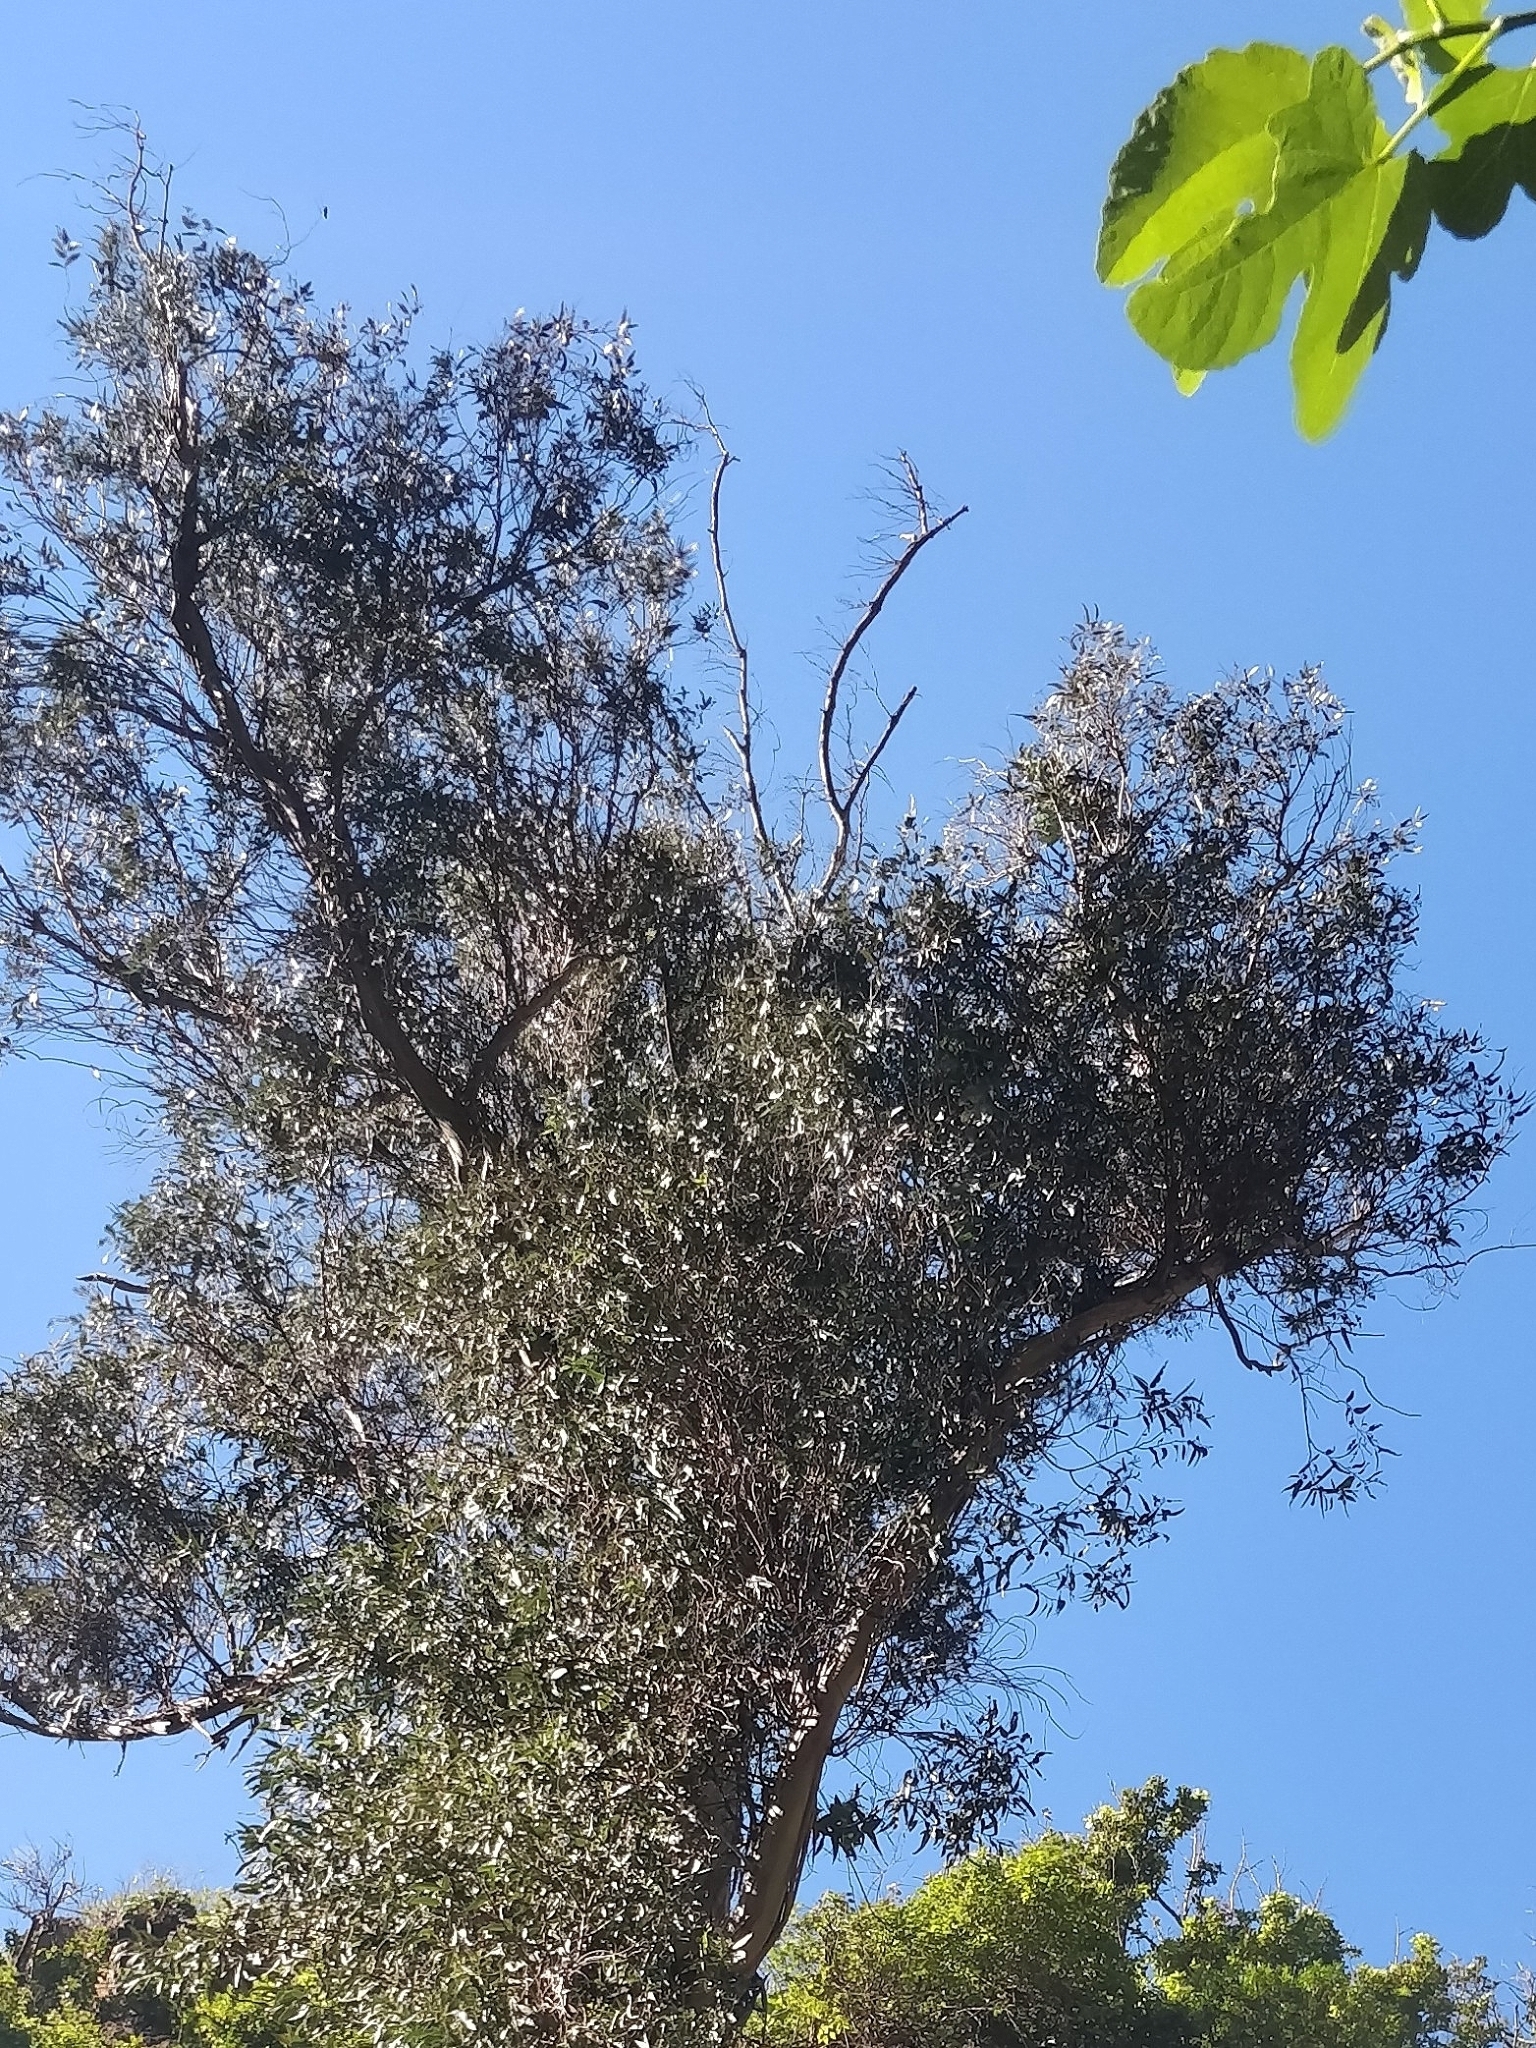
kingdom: Plantae
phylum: Tracheophyta
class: Magnoliopsida
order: Myrtales
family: Myrtaceae
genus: Eucalyptus
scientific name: Eucalyptus globulus
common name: Southern blue-gum
